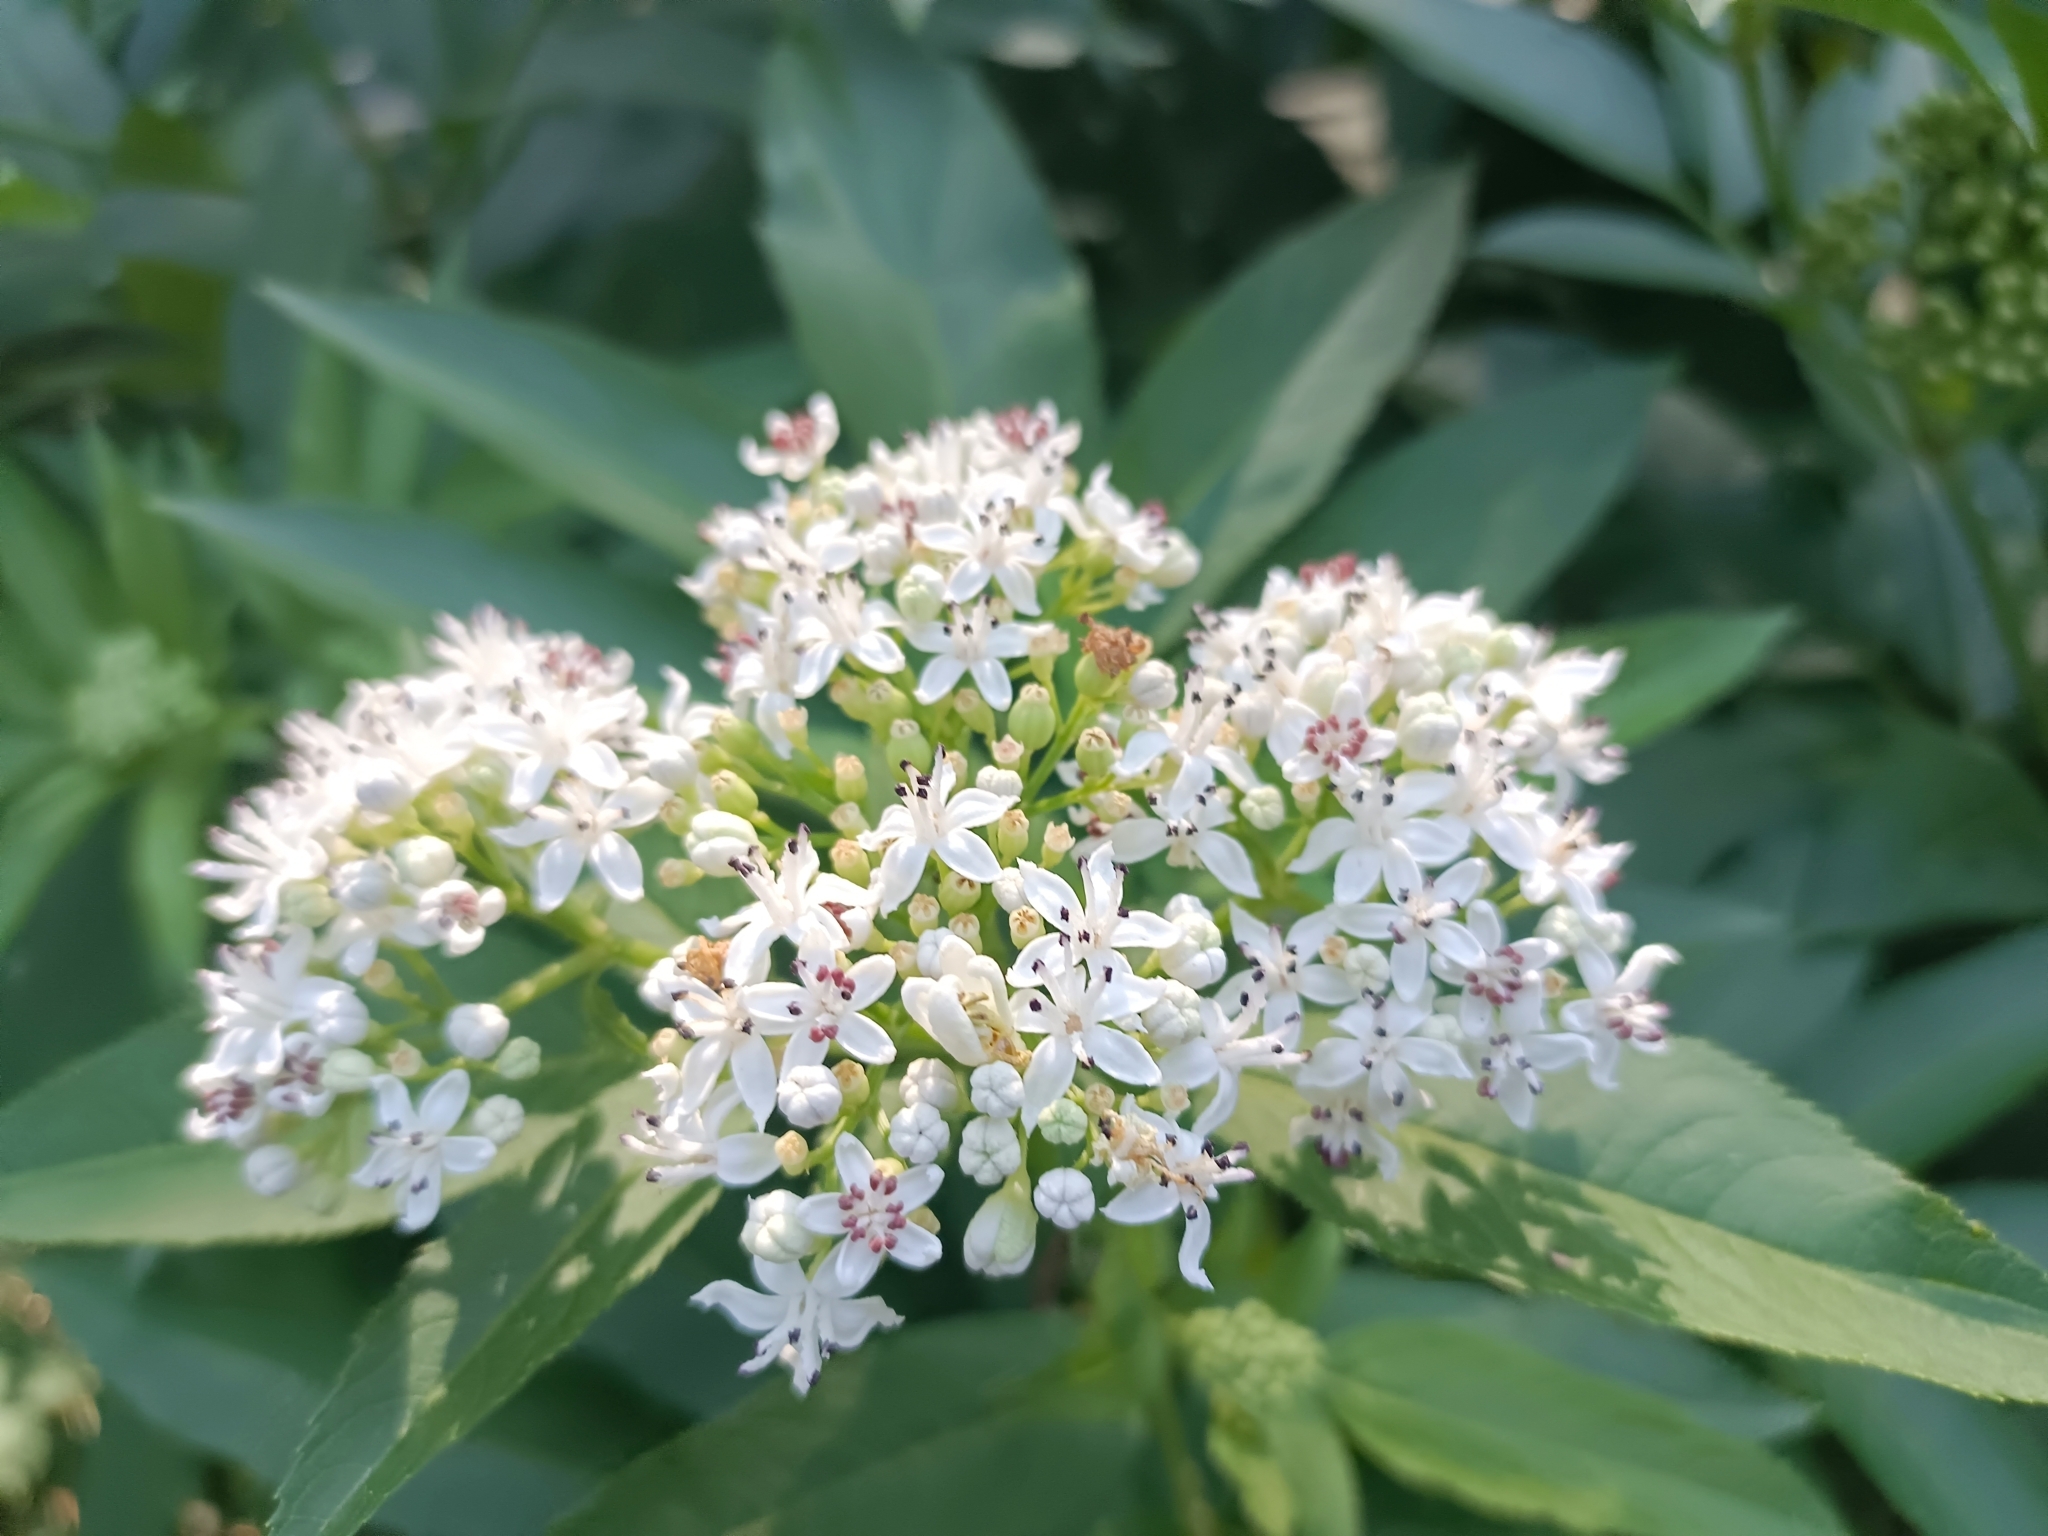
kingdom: Plantae
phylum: Tracheophyta
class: Magnoliopsida
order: Dipsacales
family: Viburnaceae
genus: Sambucus
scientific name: Sambucus ebulus
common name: Dwarf elder
